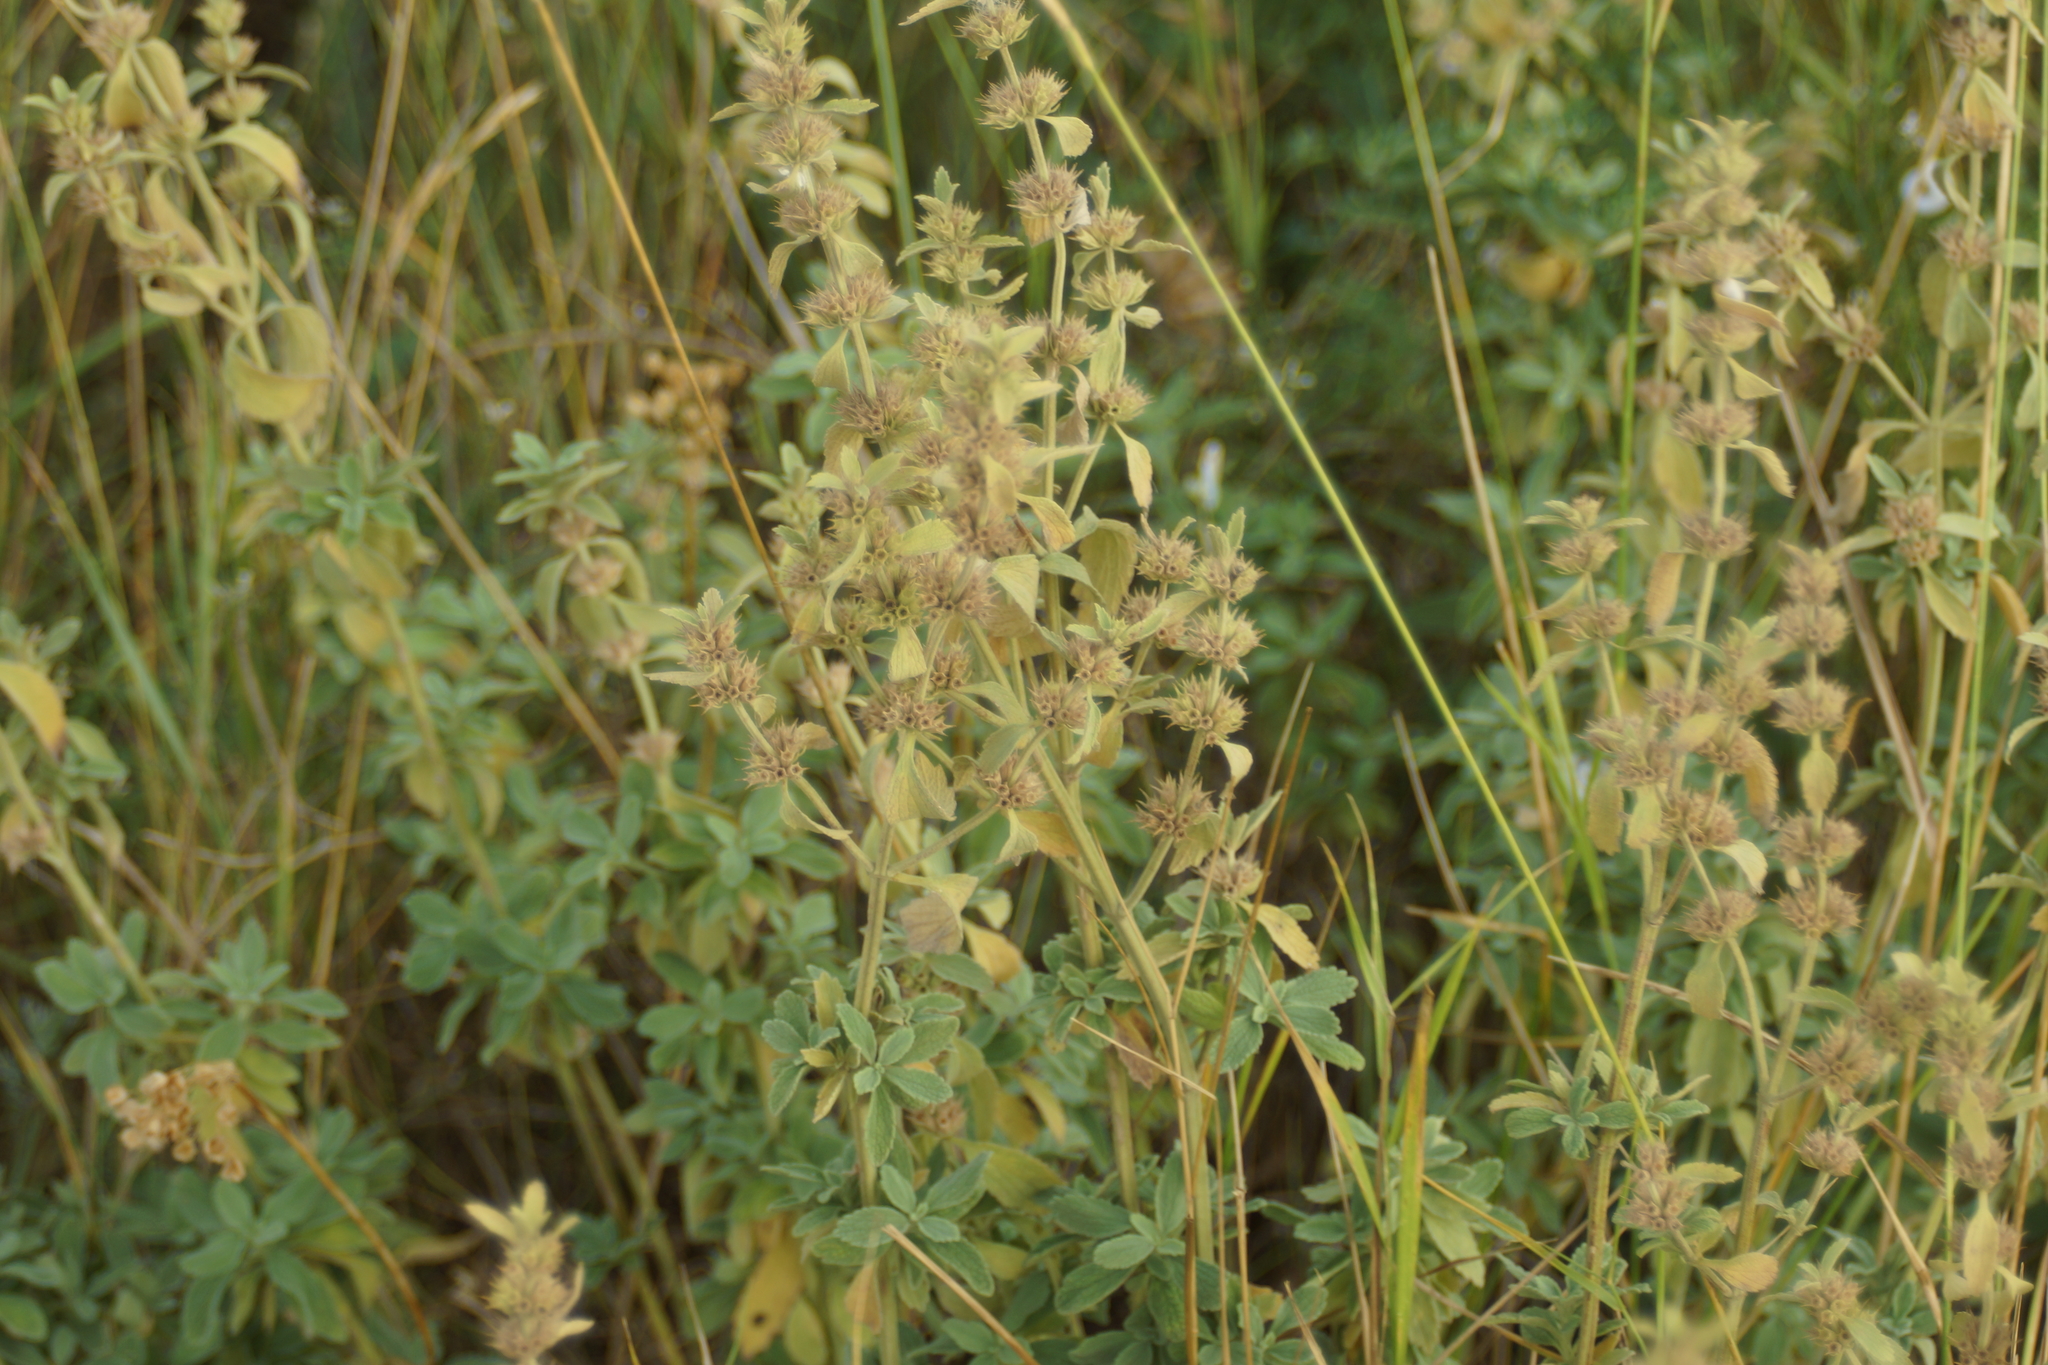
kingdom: Plantae
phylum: Tracheophyta
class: Magnoliopsida
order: Lamiales
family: Lamiaceae
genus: Marrubium
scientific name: Marrubium peregrinum
